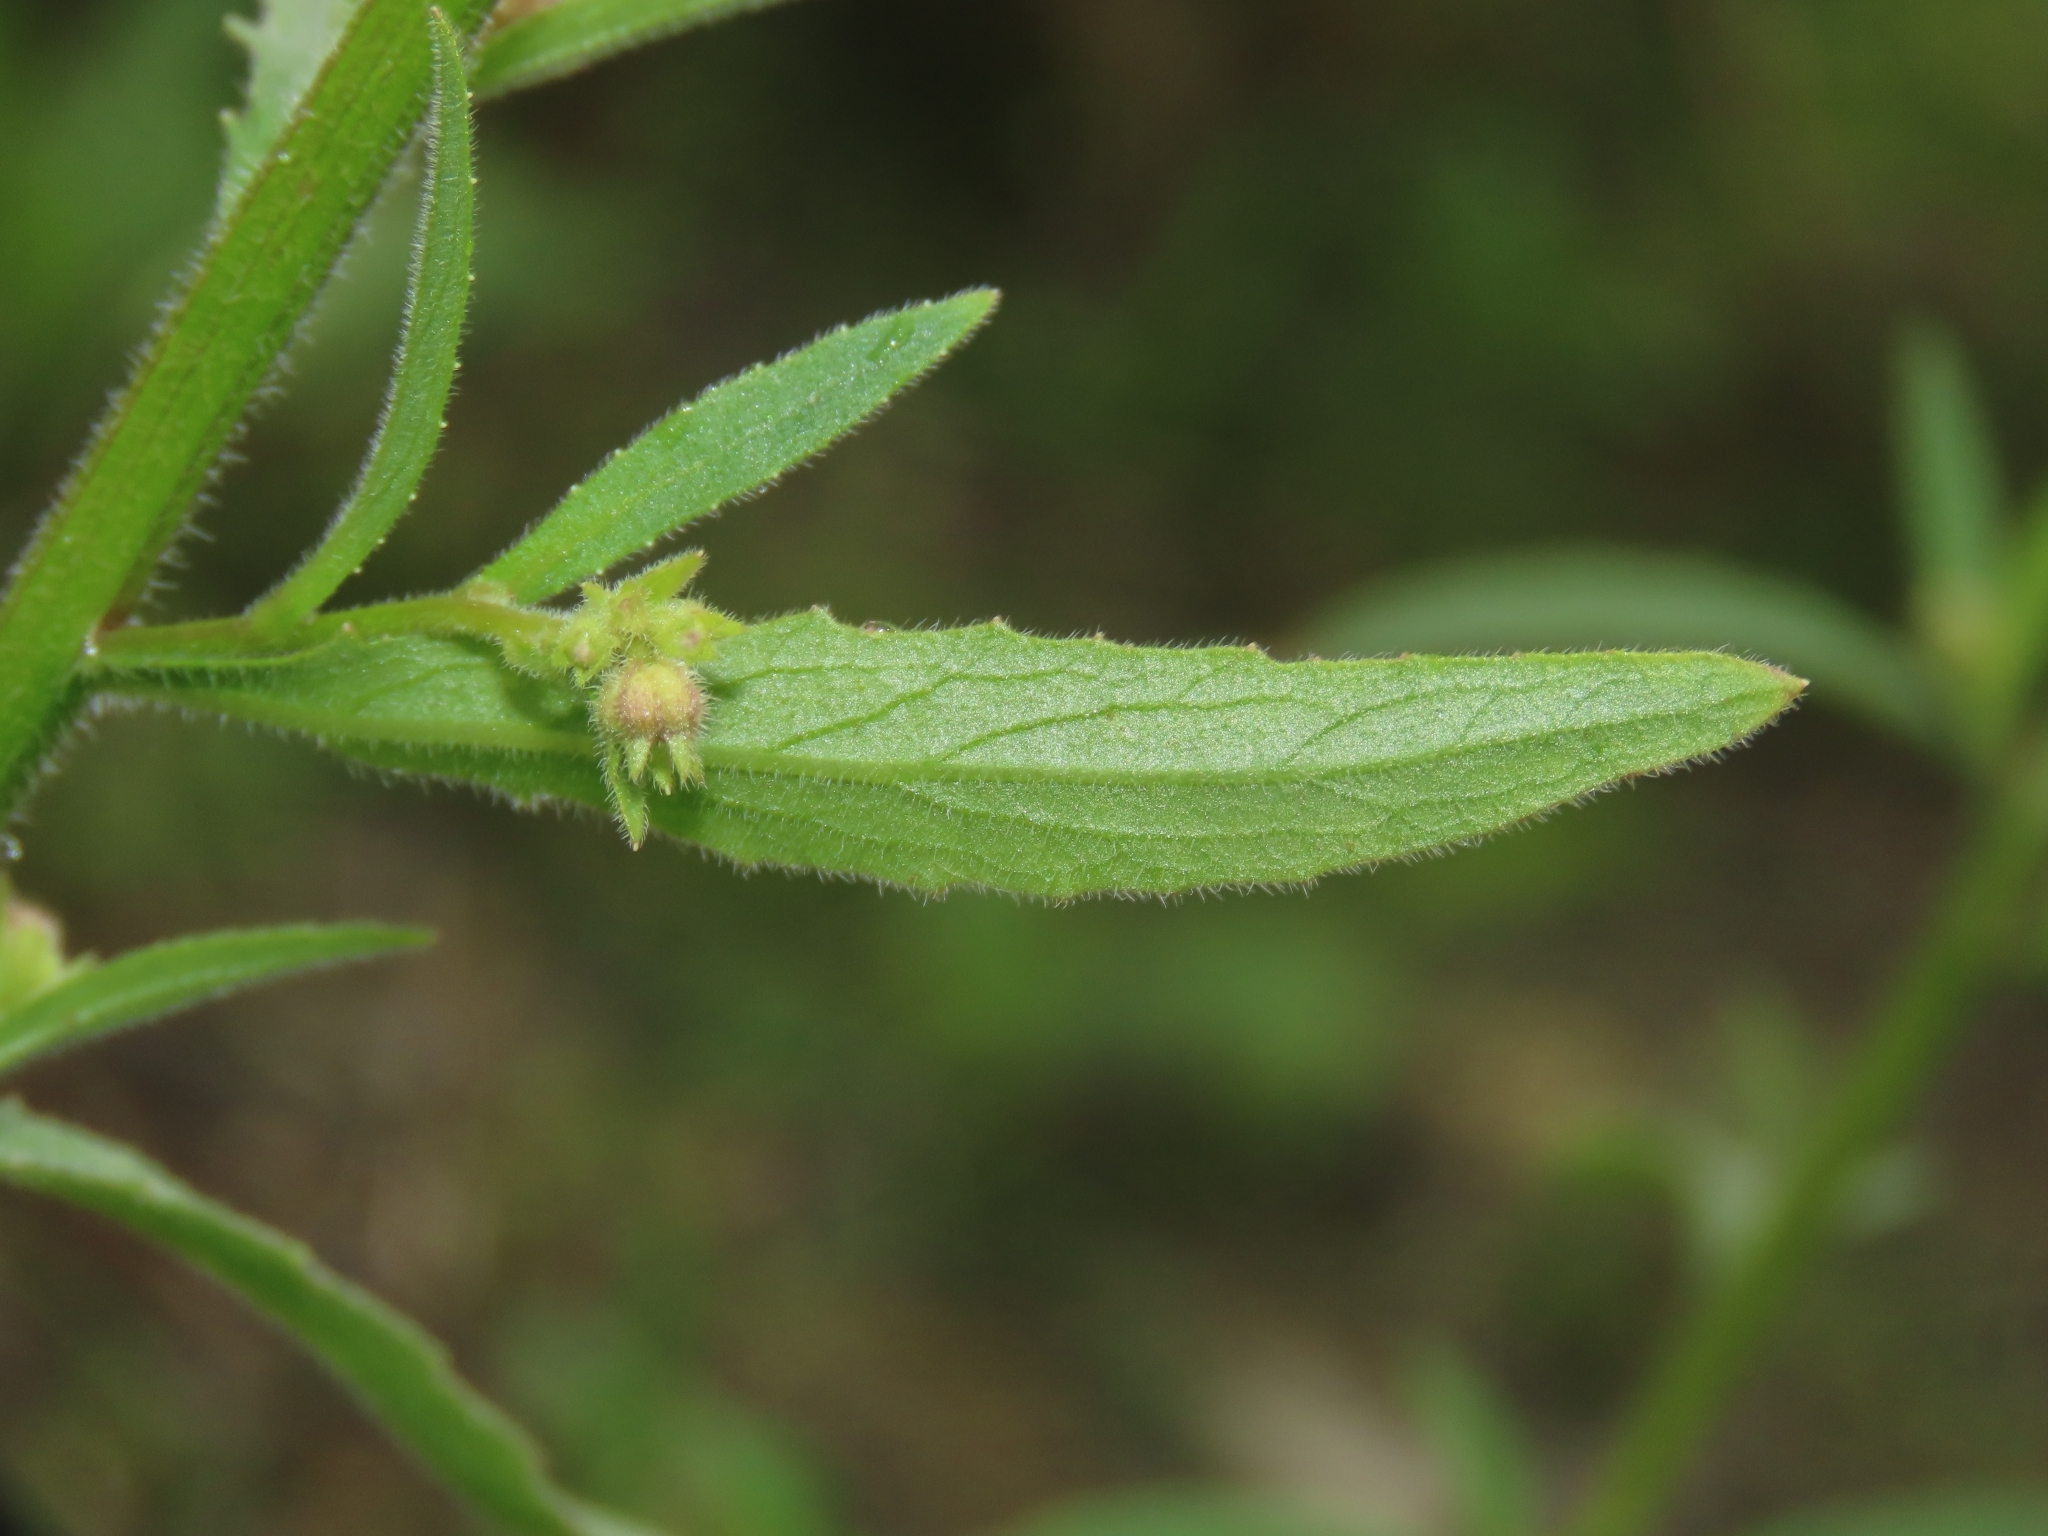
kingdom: Plantae
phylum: Tracheophyta
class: Magnoliopsida
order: Asterales
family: Campanulaceae
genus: Campanula
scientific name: Campanula dimorphantha
